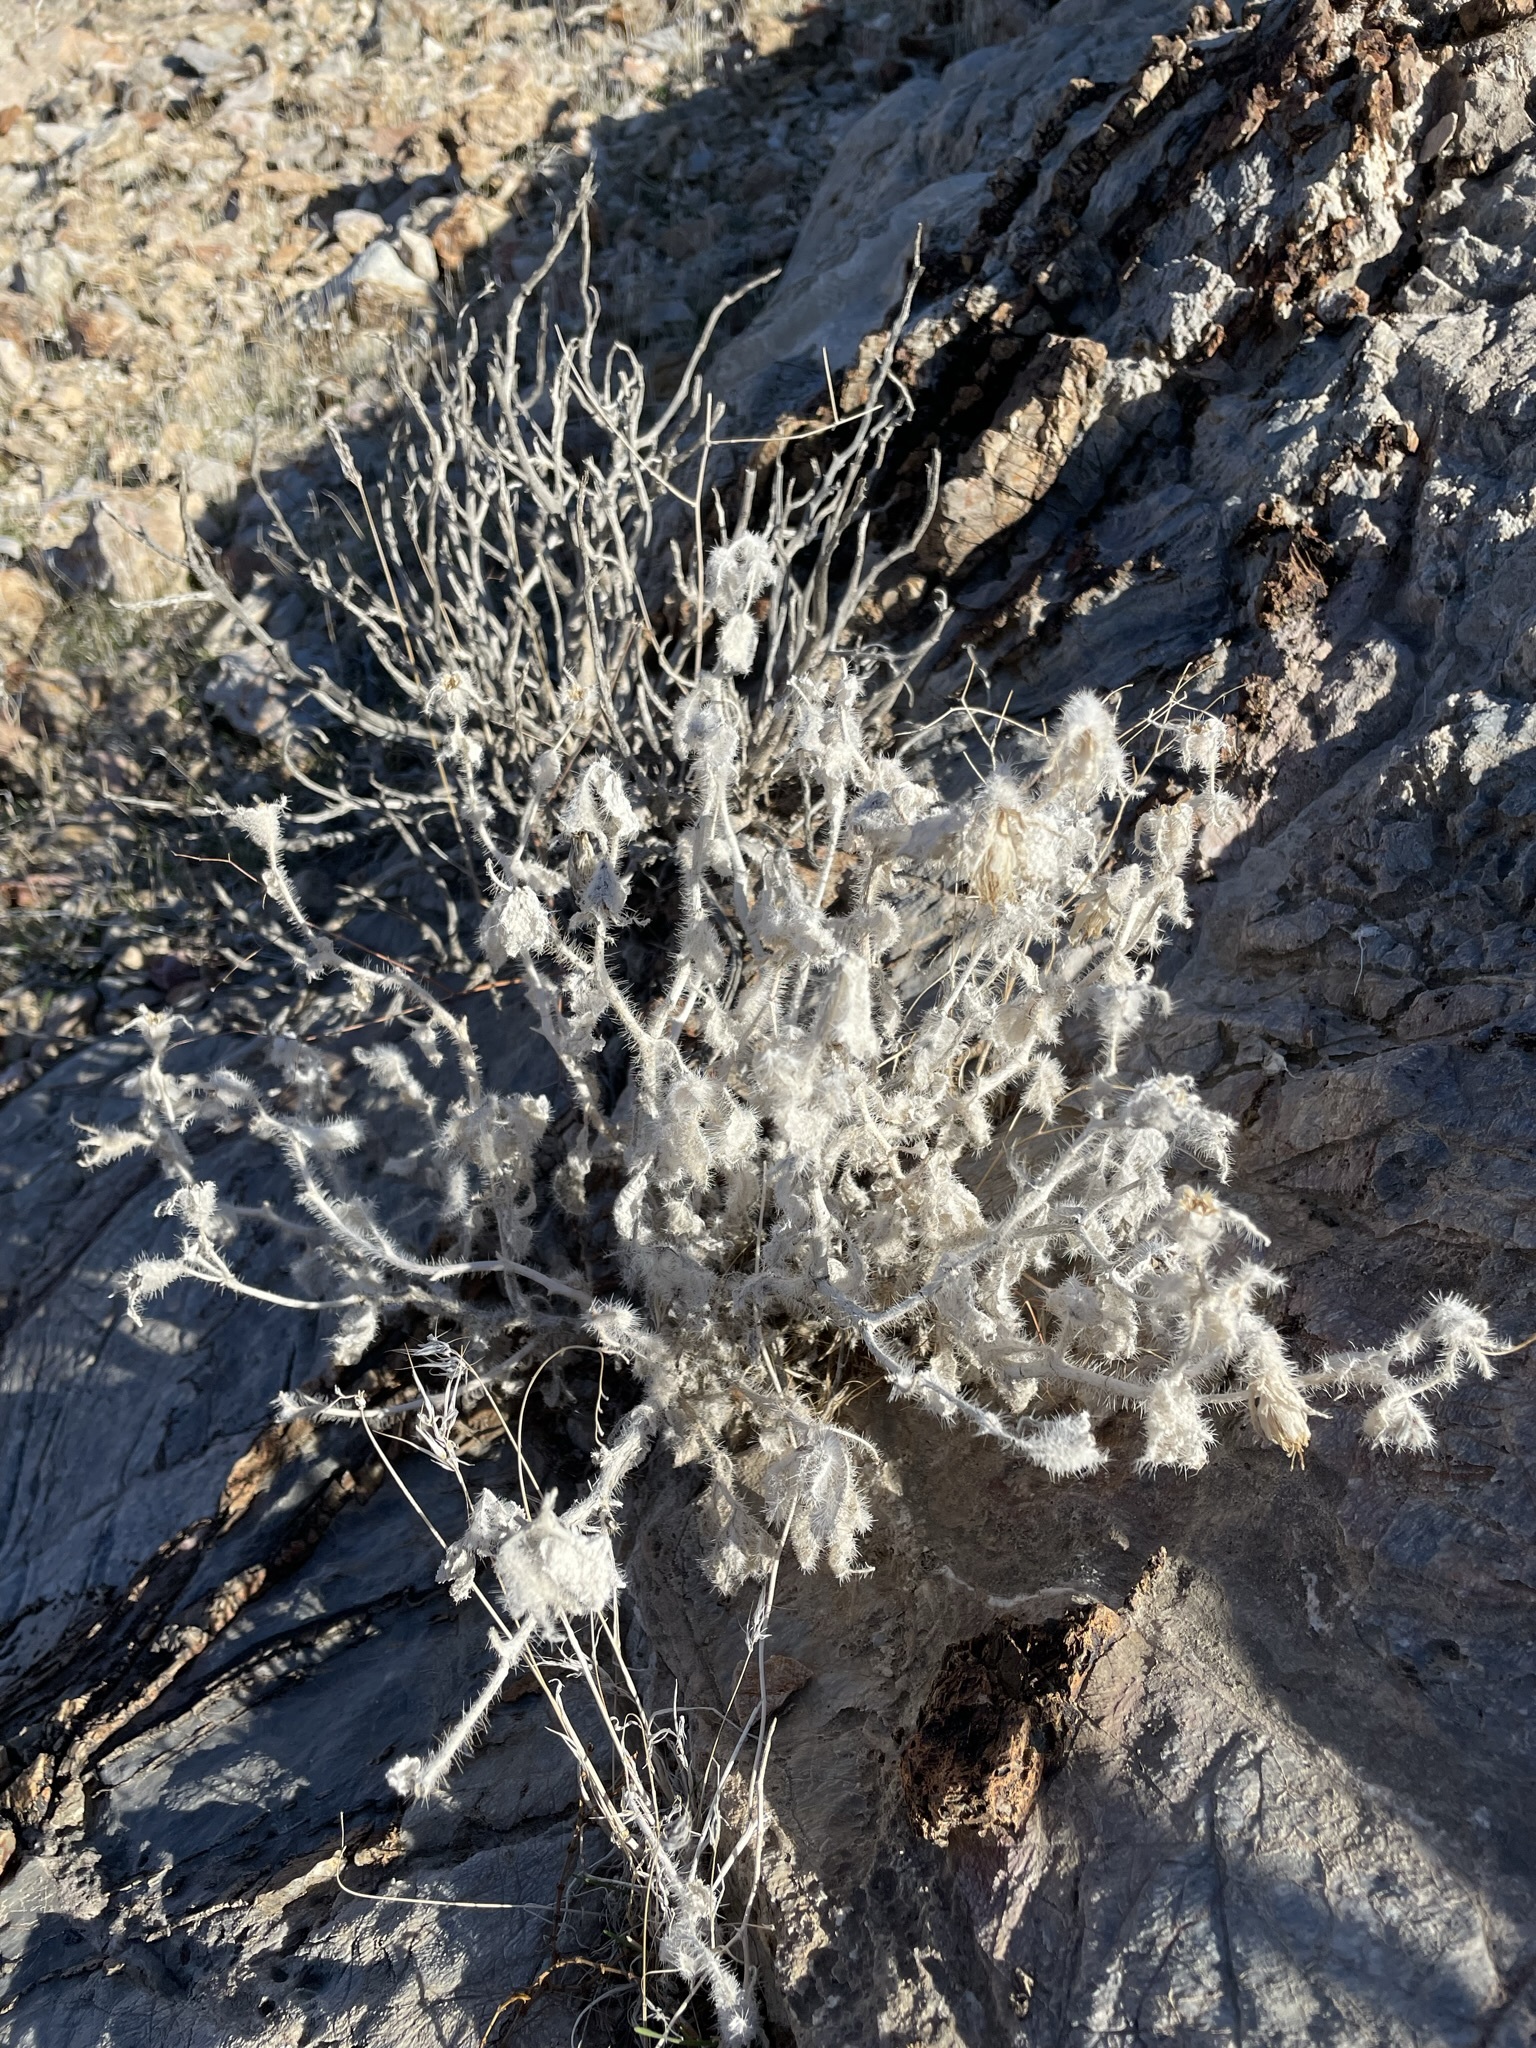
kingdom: Plantae
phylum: Tracheophyta
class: Magnoliopsida
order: Cornales
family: Loasaceae
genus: Eucnide
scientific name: Eucnide urens
